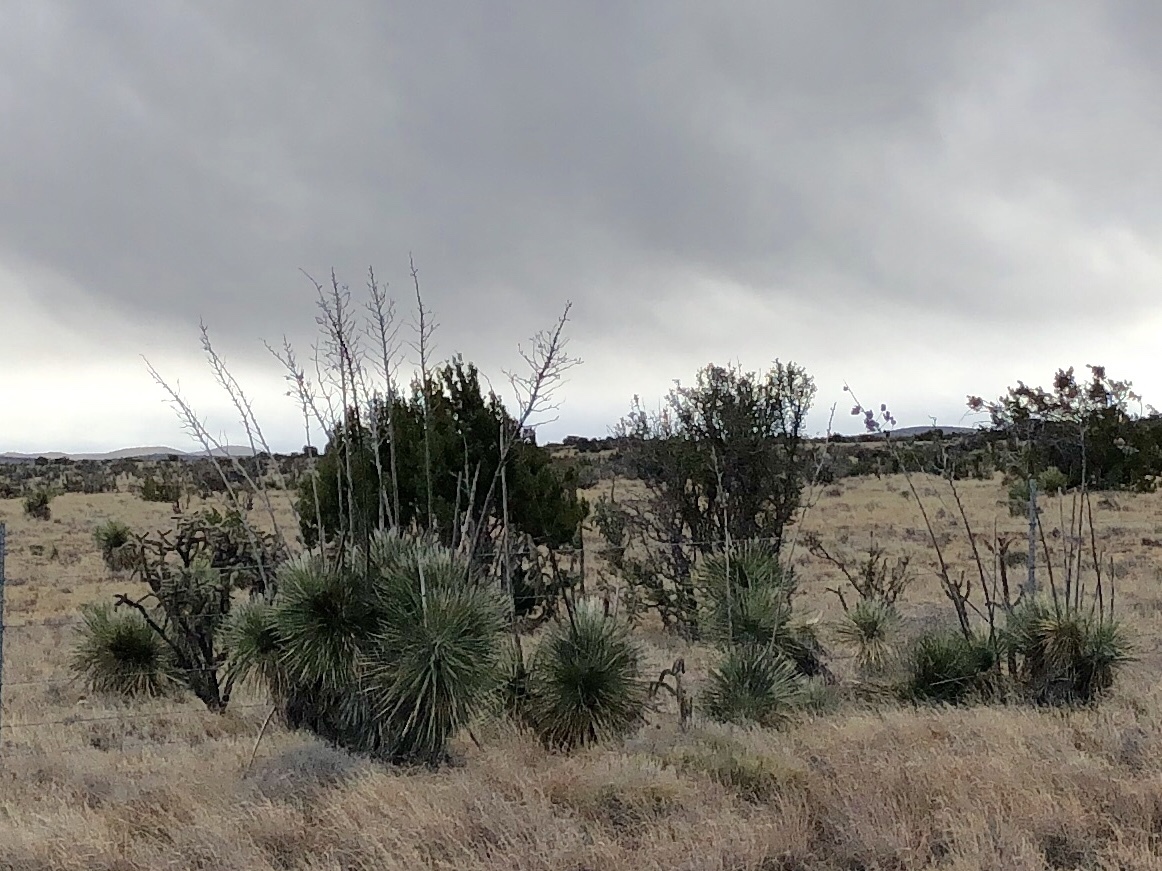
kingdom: Plantae
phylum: Tracheophyta
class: Liliopsida
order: Asparagales
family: Asparagaceae
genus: Yucca
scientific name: Yucca elata
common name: Palmella
